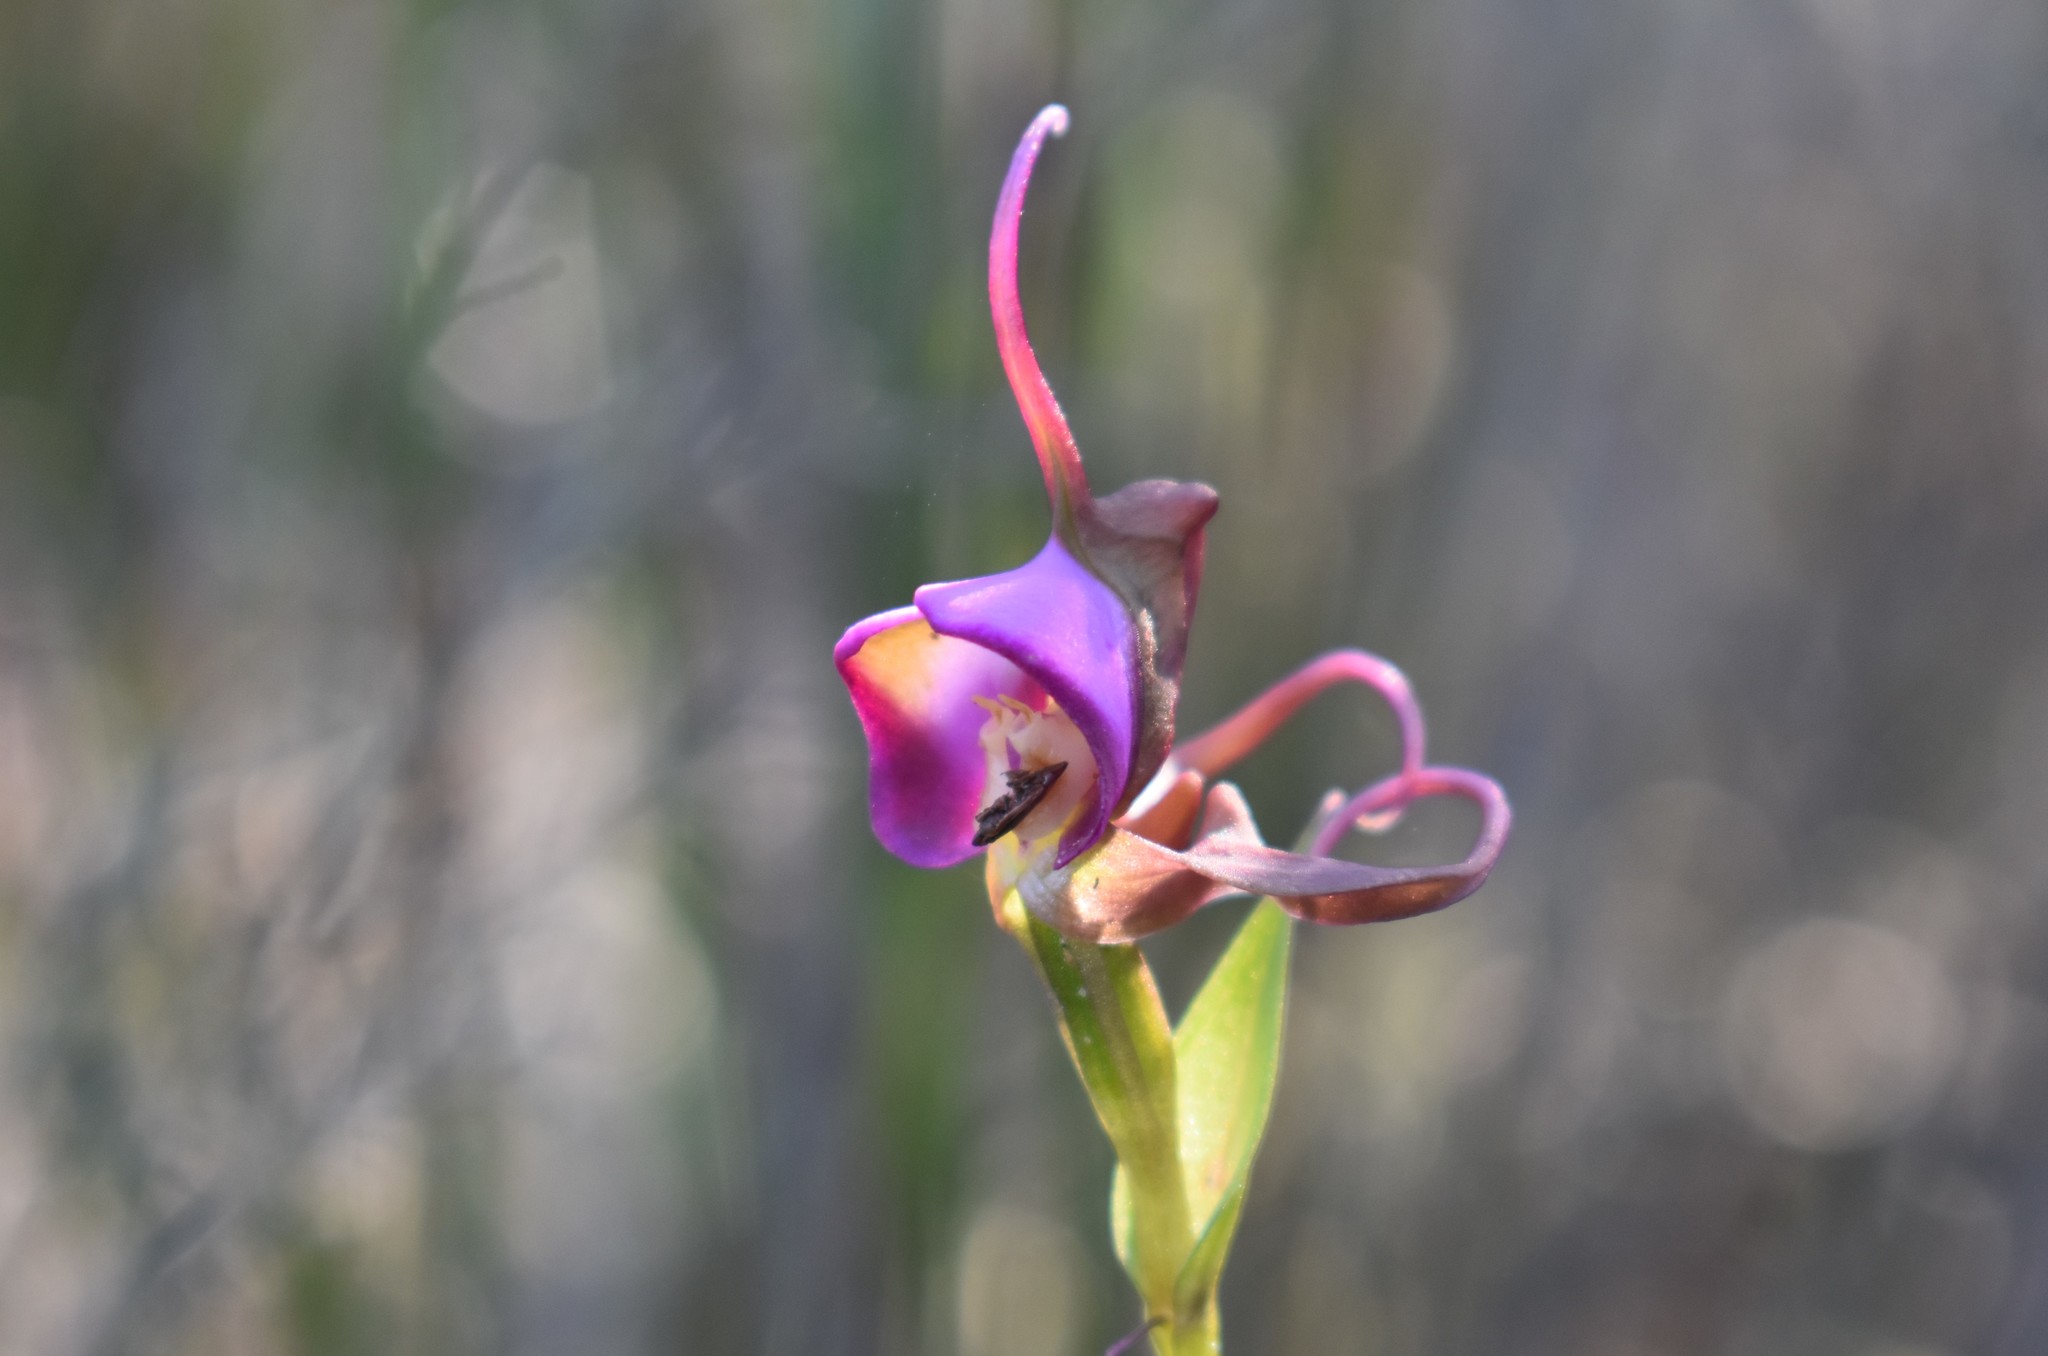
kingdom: Plantae
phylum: Tracheophyta
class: Liliopsida
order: Asparagales
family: Orchidaceae
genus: Disperis
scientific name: Disperis capensis
